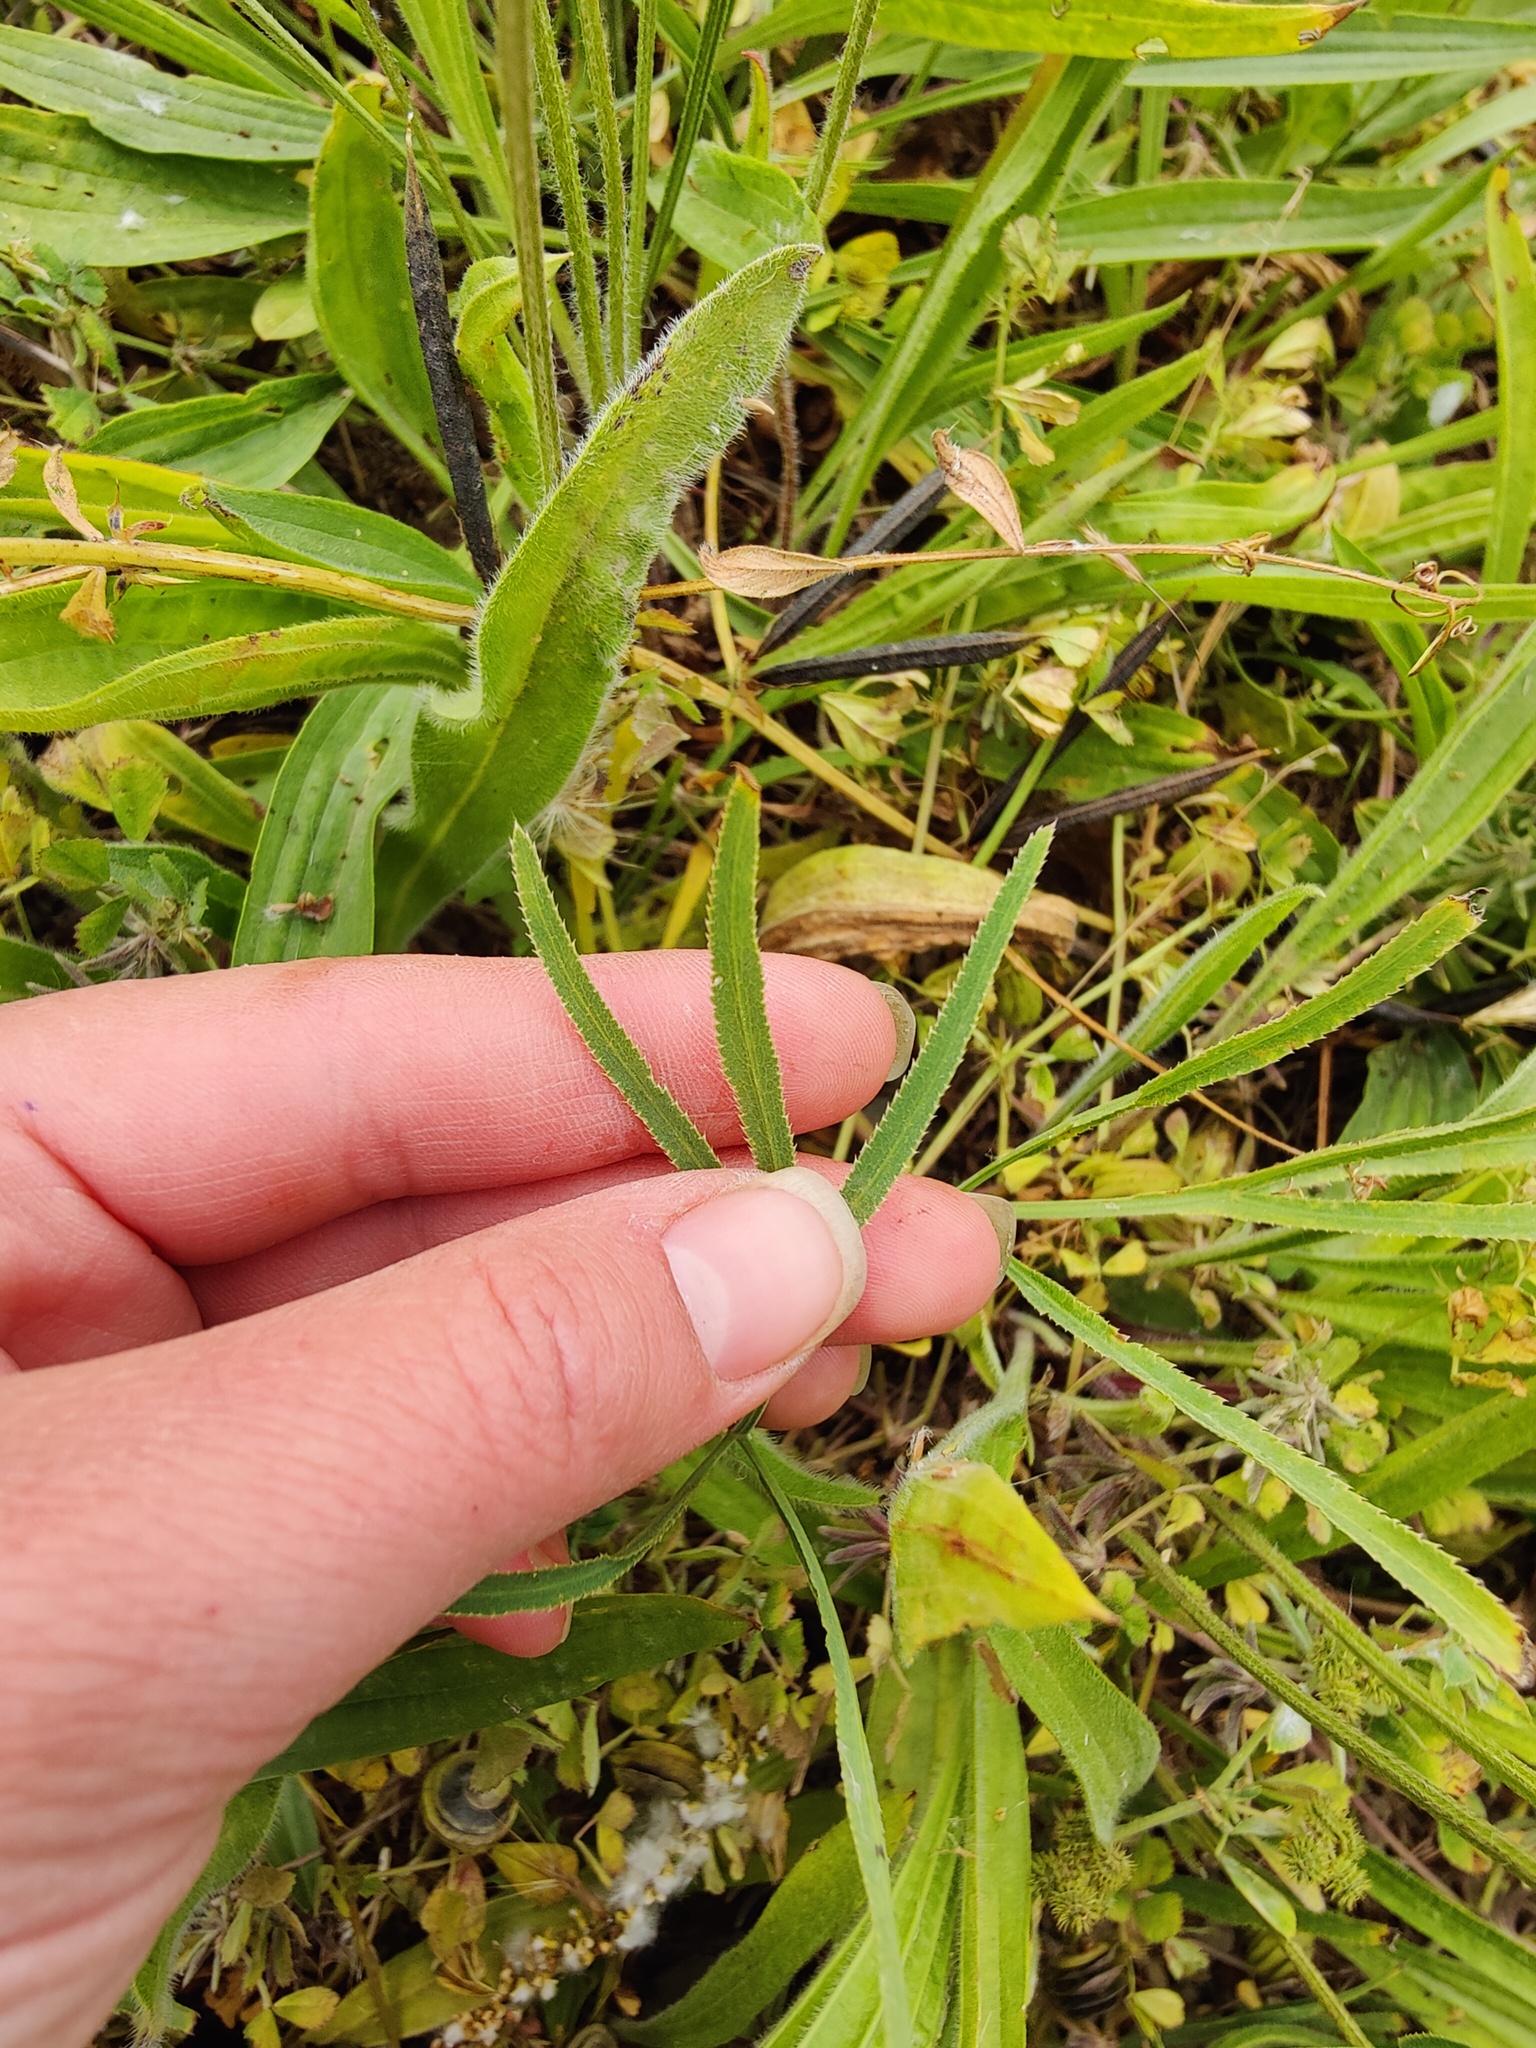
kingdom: Plantae
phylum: Tracheophyta
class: Magnoliopsida
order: Apiales
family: Apiaceae
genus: Falcaria
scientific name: Falcaria vulgaris
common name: Longleaf
